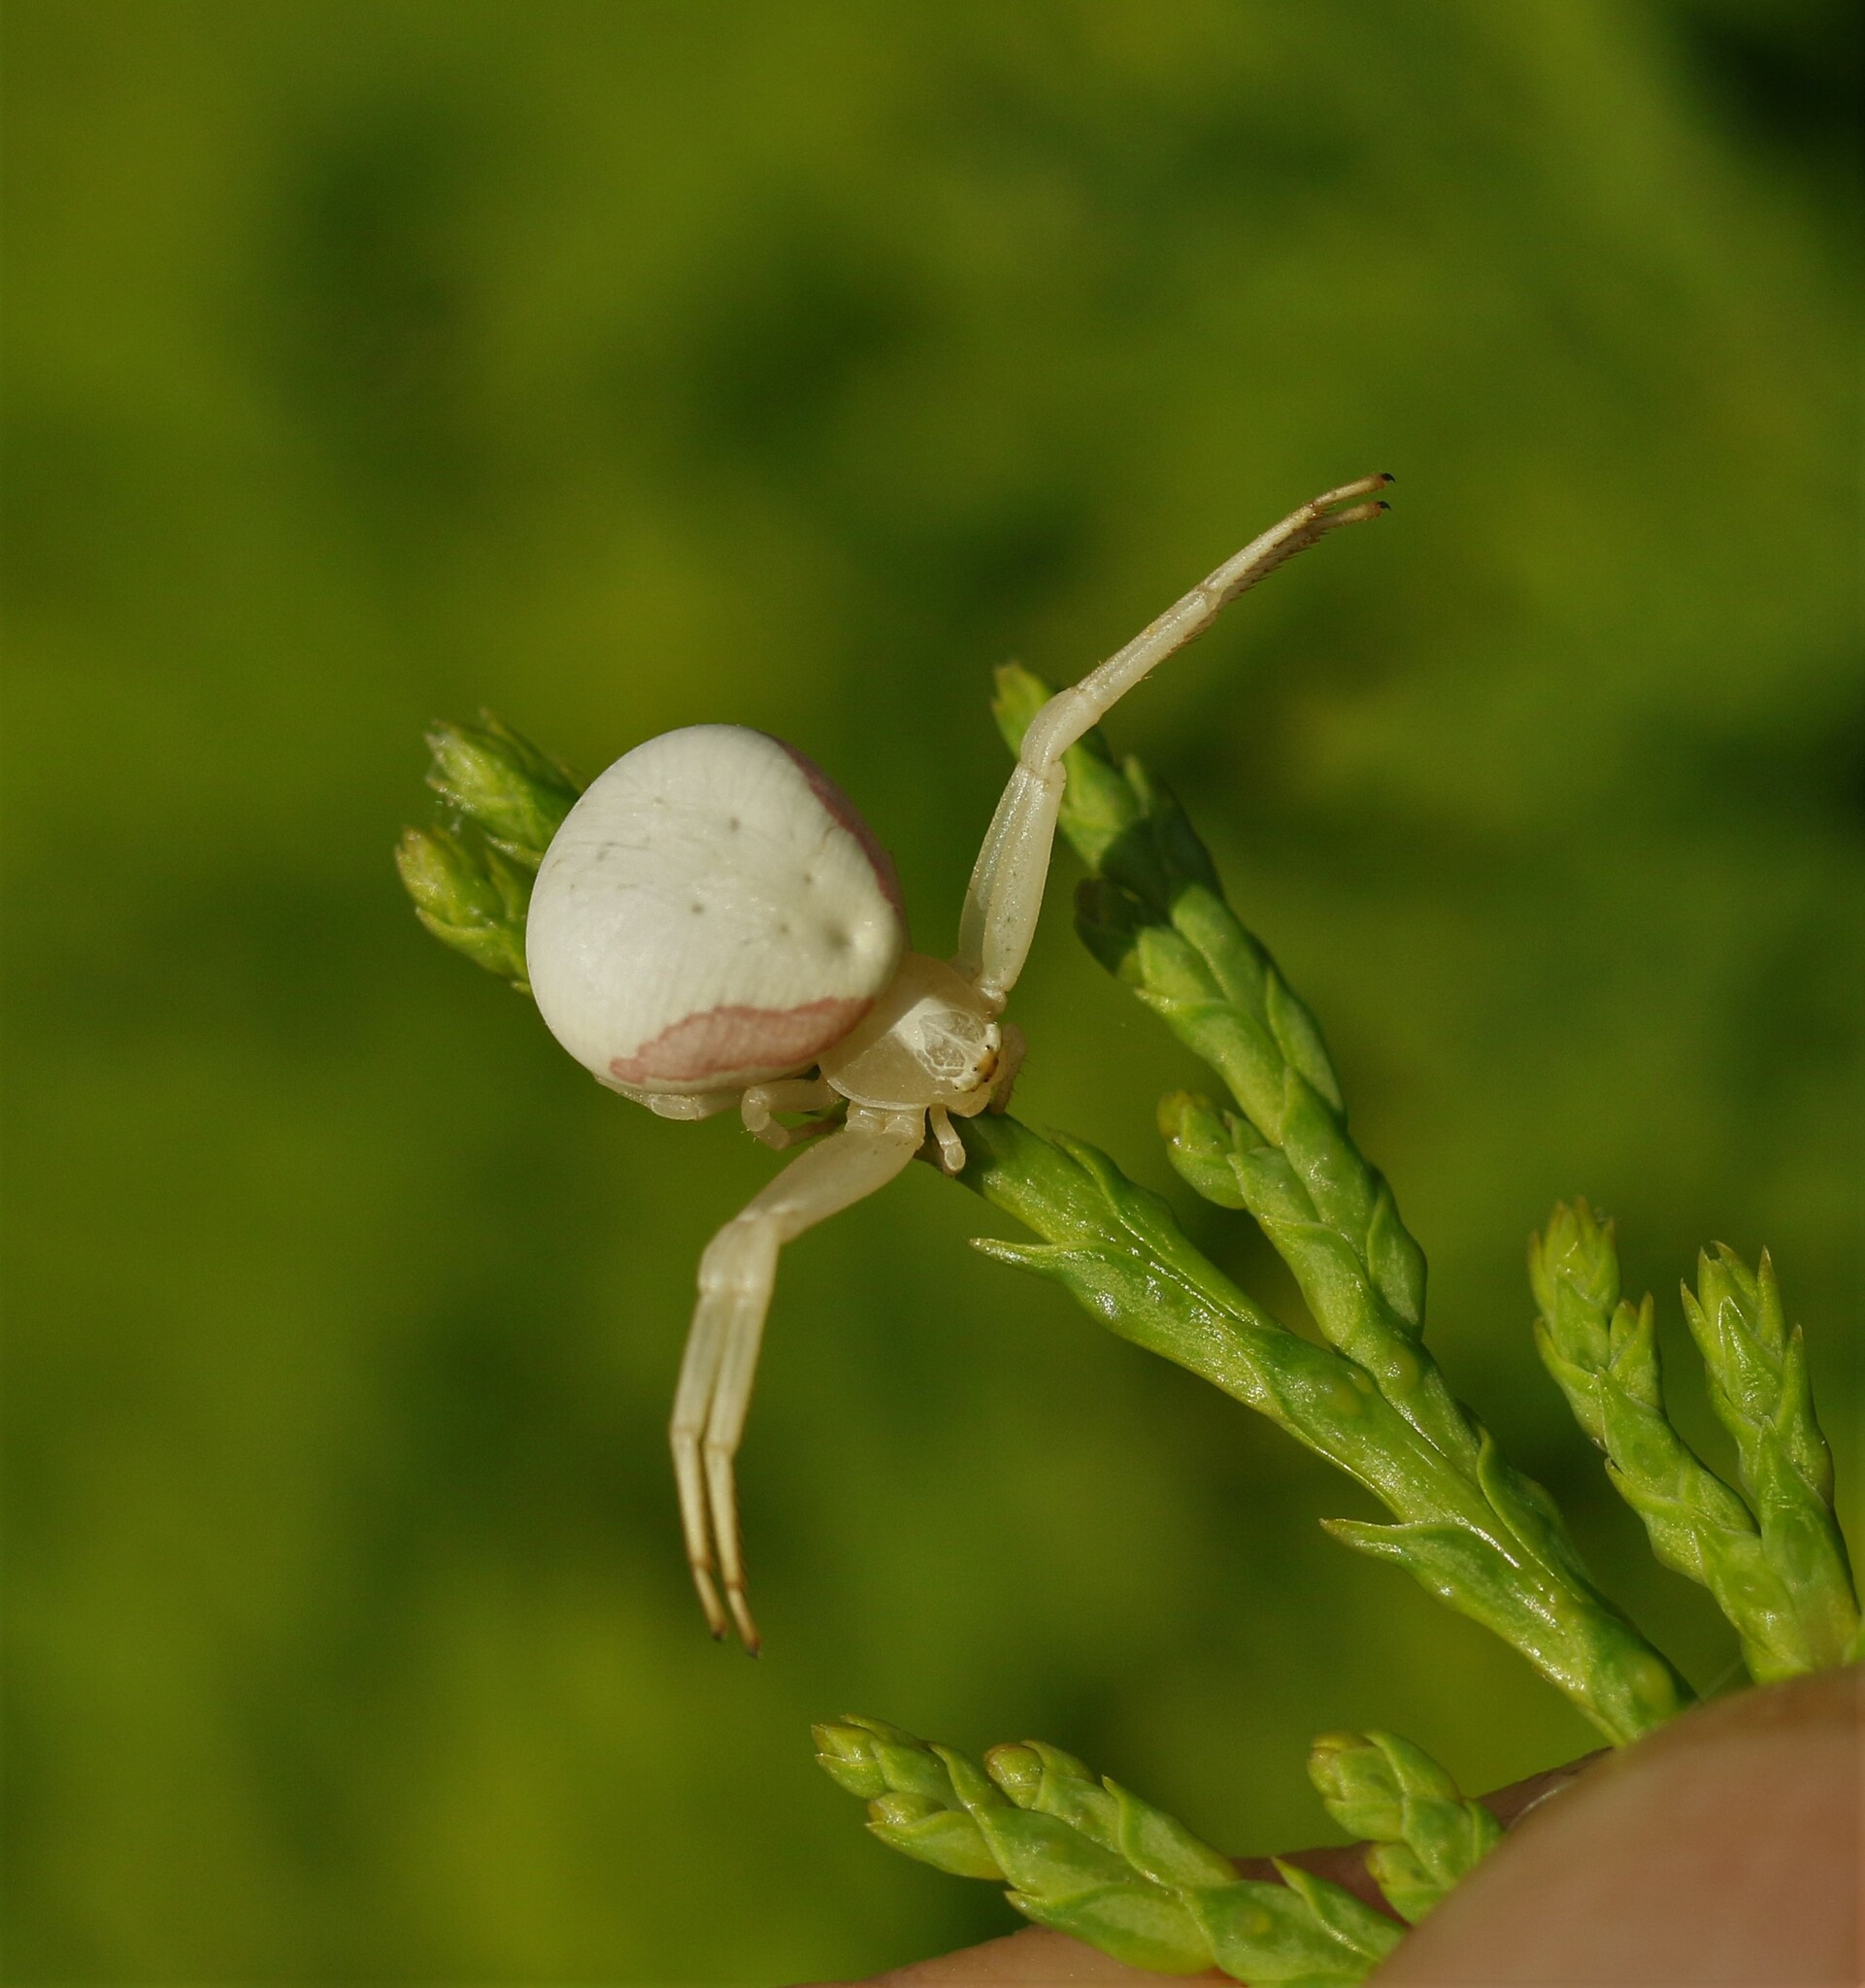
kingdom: Animalia
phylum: Arthropoda
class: Arachnida
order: Araneae
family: Thomisidae
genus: Misumena
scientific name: Misumena vatia
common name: Goldenrod crab spider
